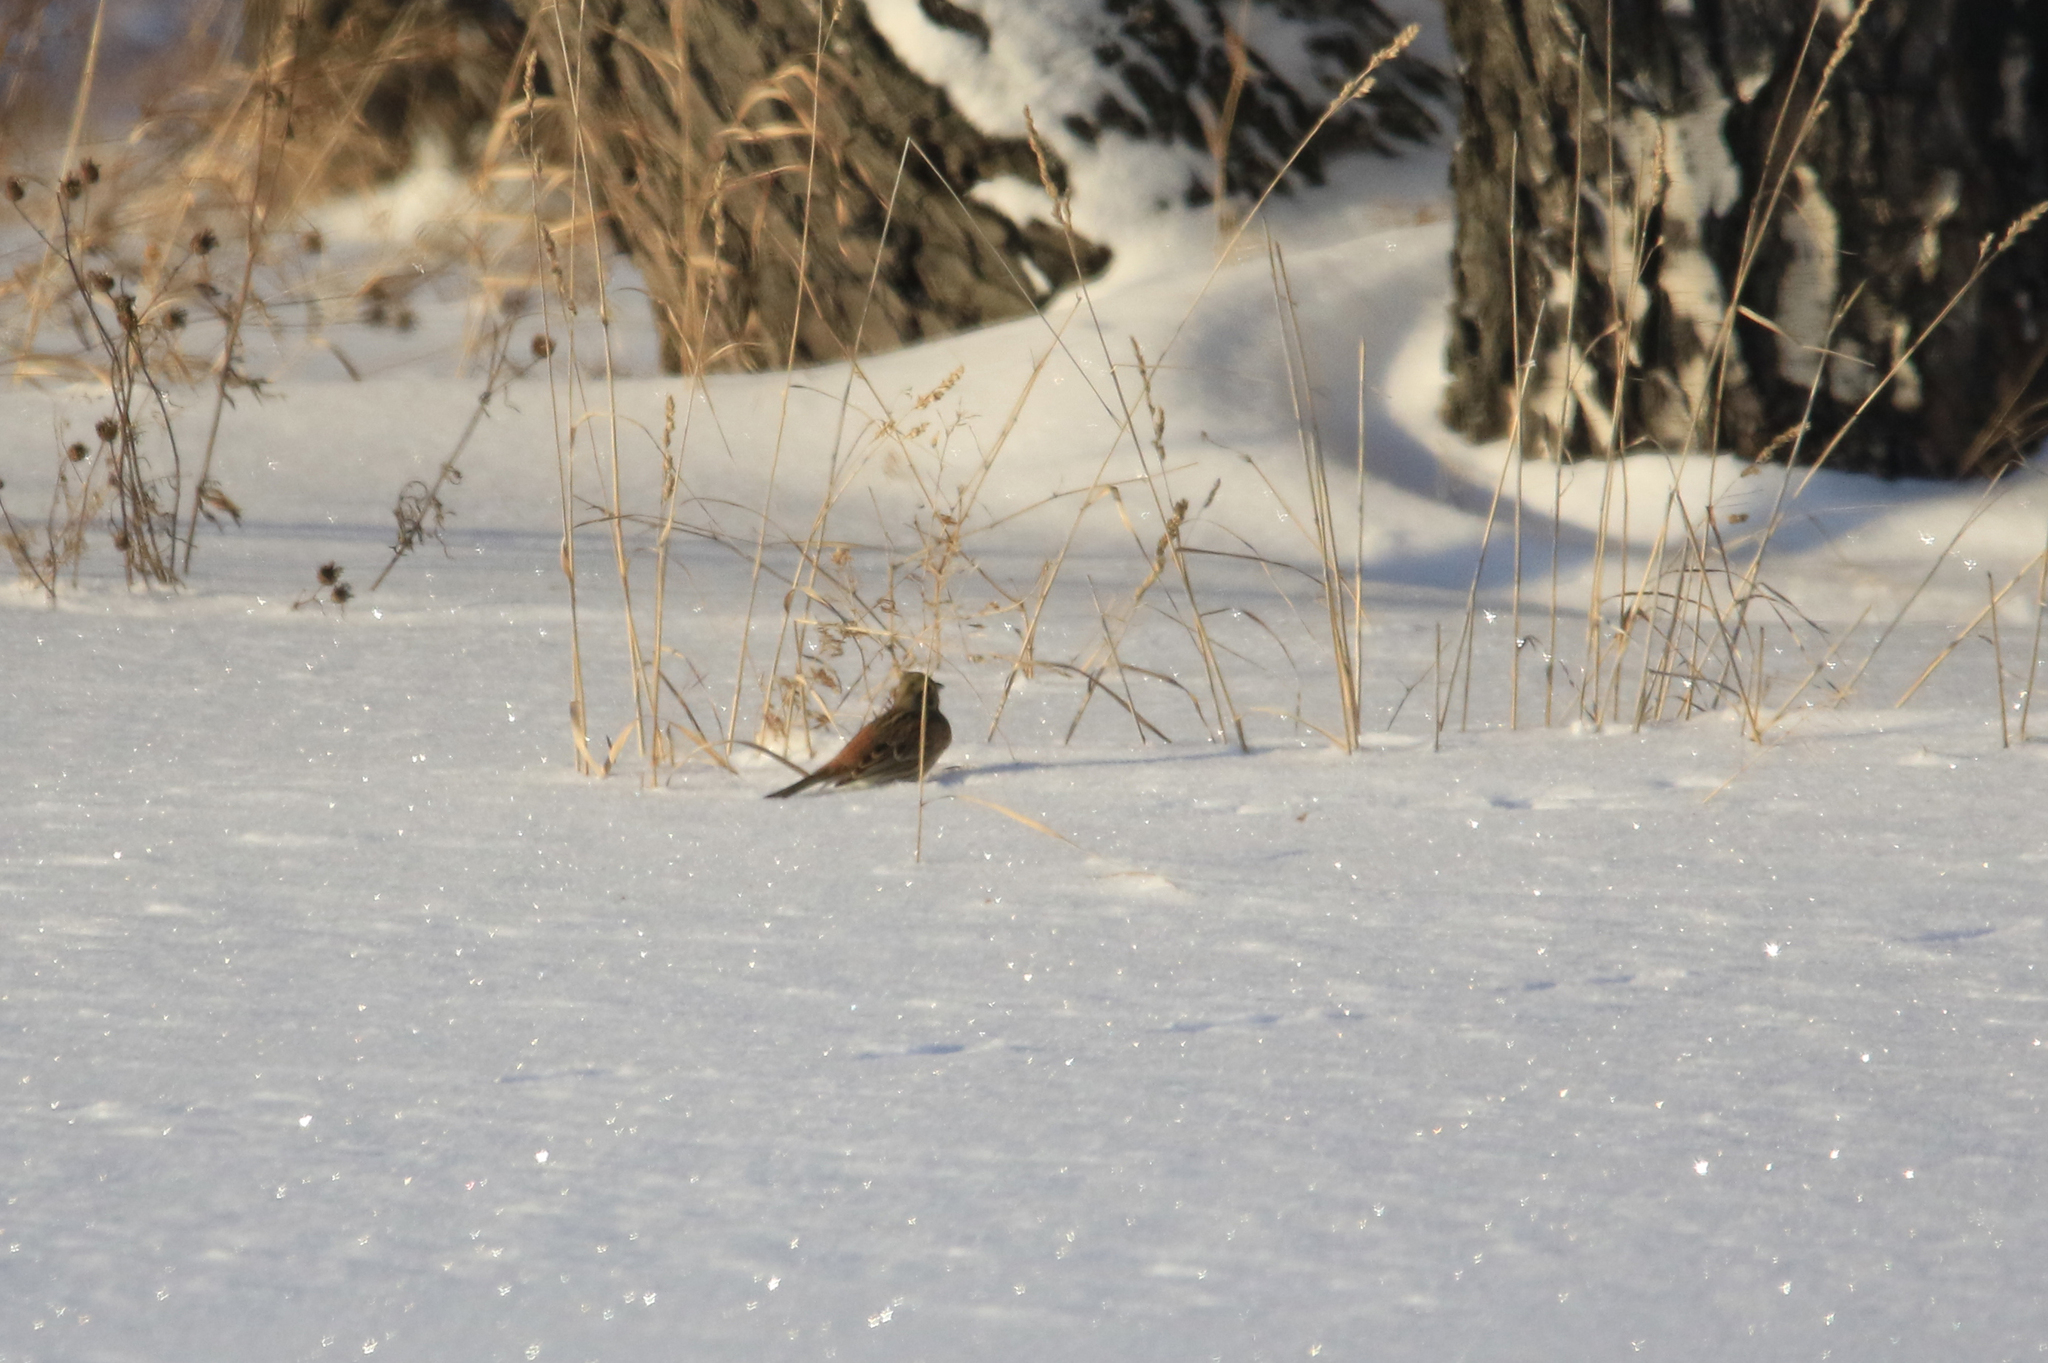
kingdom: Animalia
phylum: Chordata
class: Aves
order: Passeriformes
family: Emberizidae
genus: Emberiza
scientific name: Emberiza citrinella
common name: Yellowhammer
